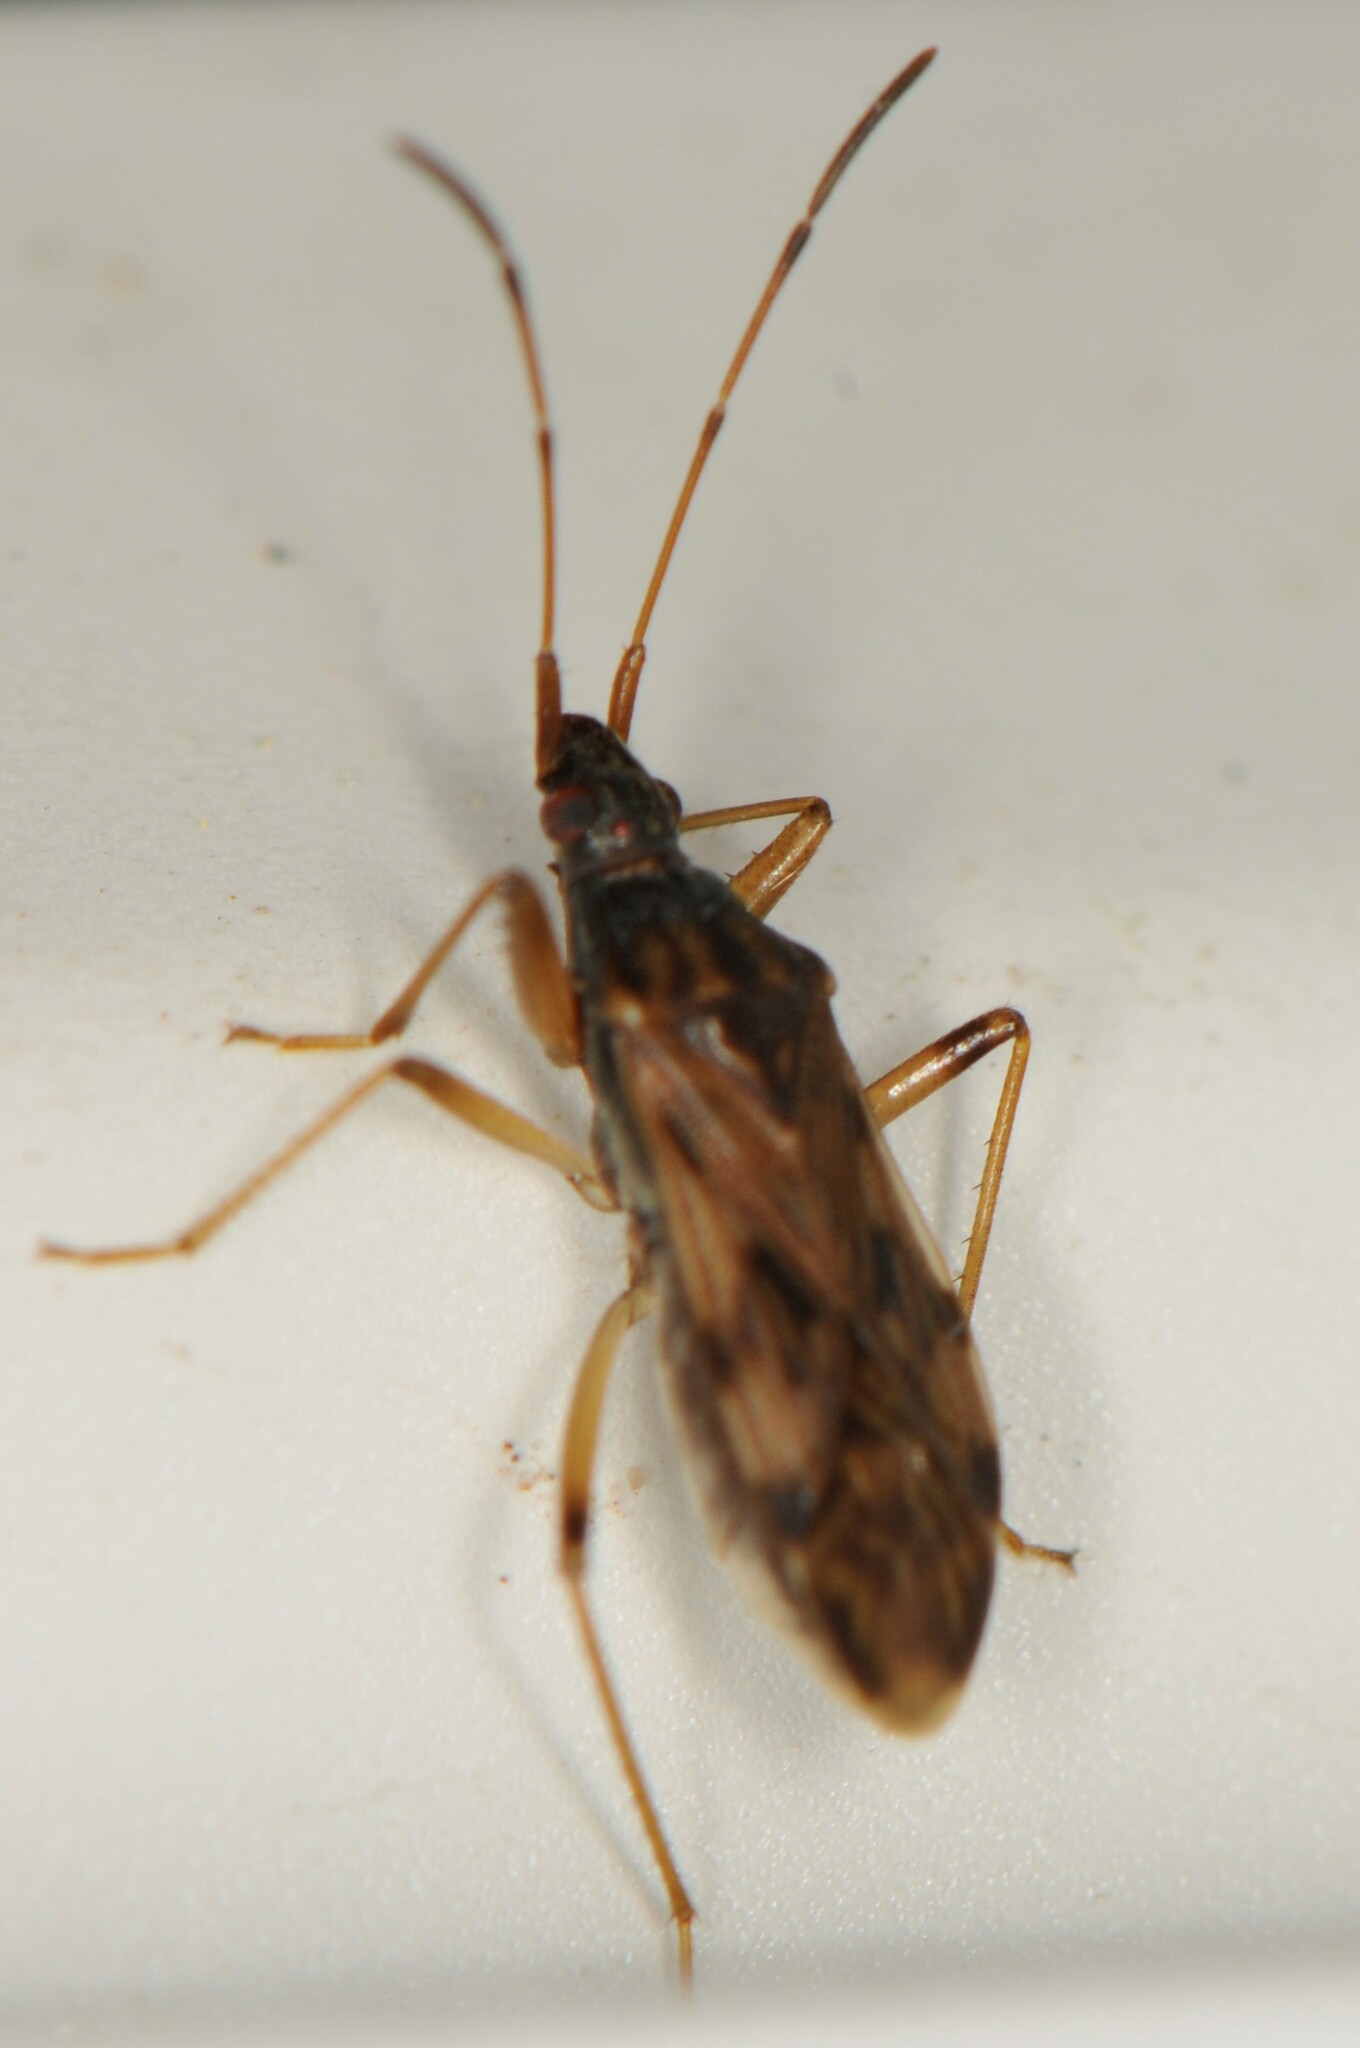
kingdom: Animalia
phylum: Arthropoda
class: Insecta
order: Hemiptera
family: Rhyparochromidae
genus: Ozophora
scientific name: Ozophora salsaverdeae
